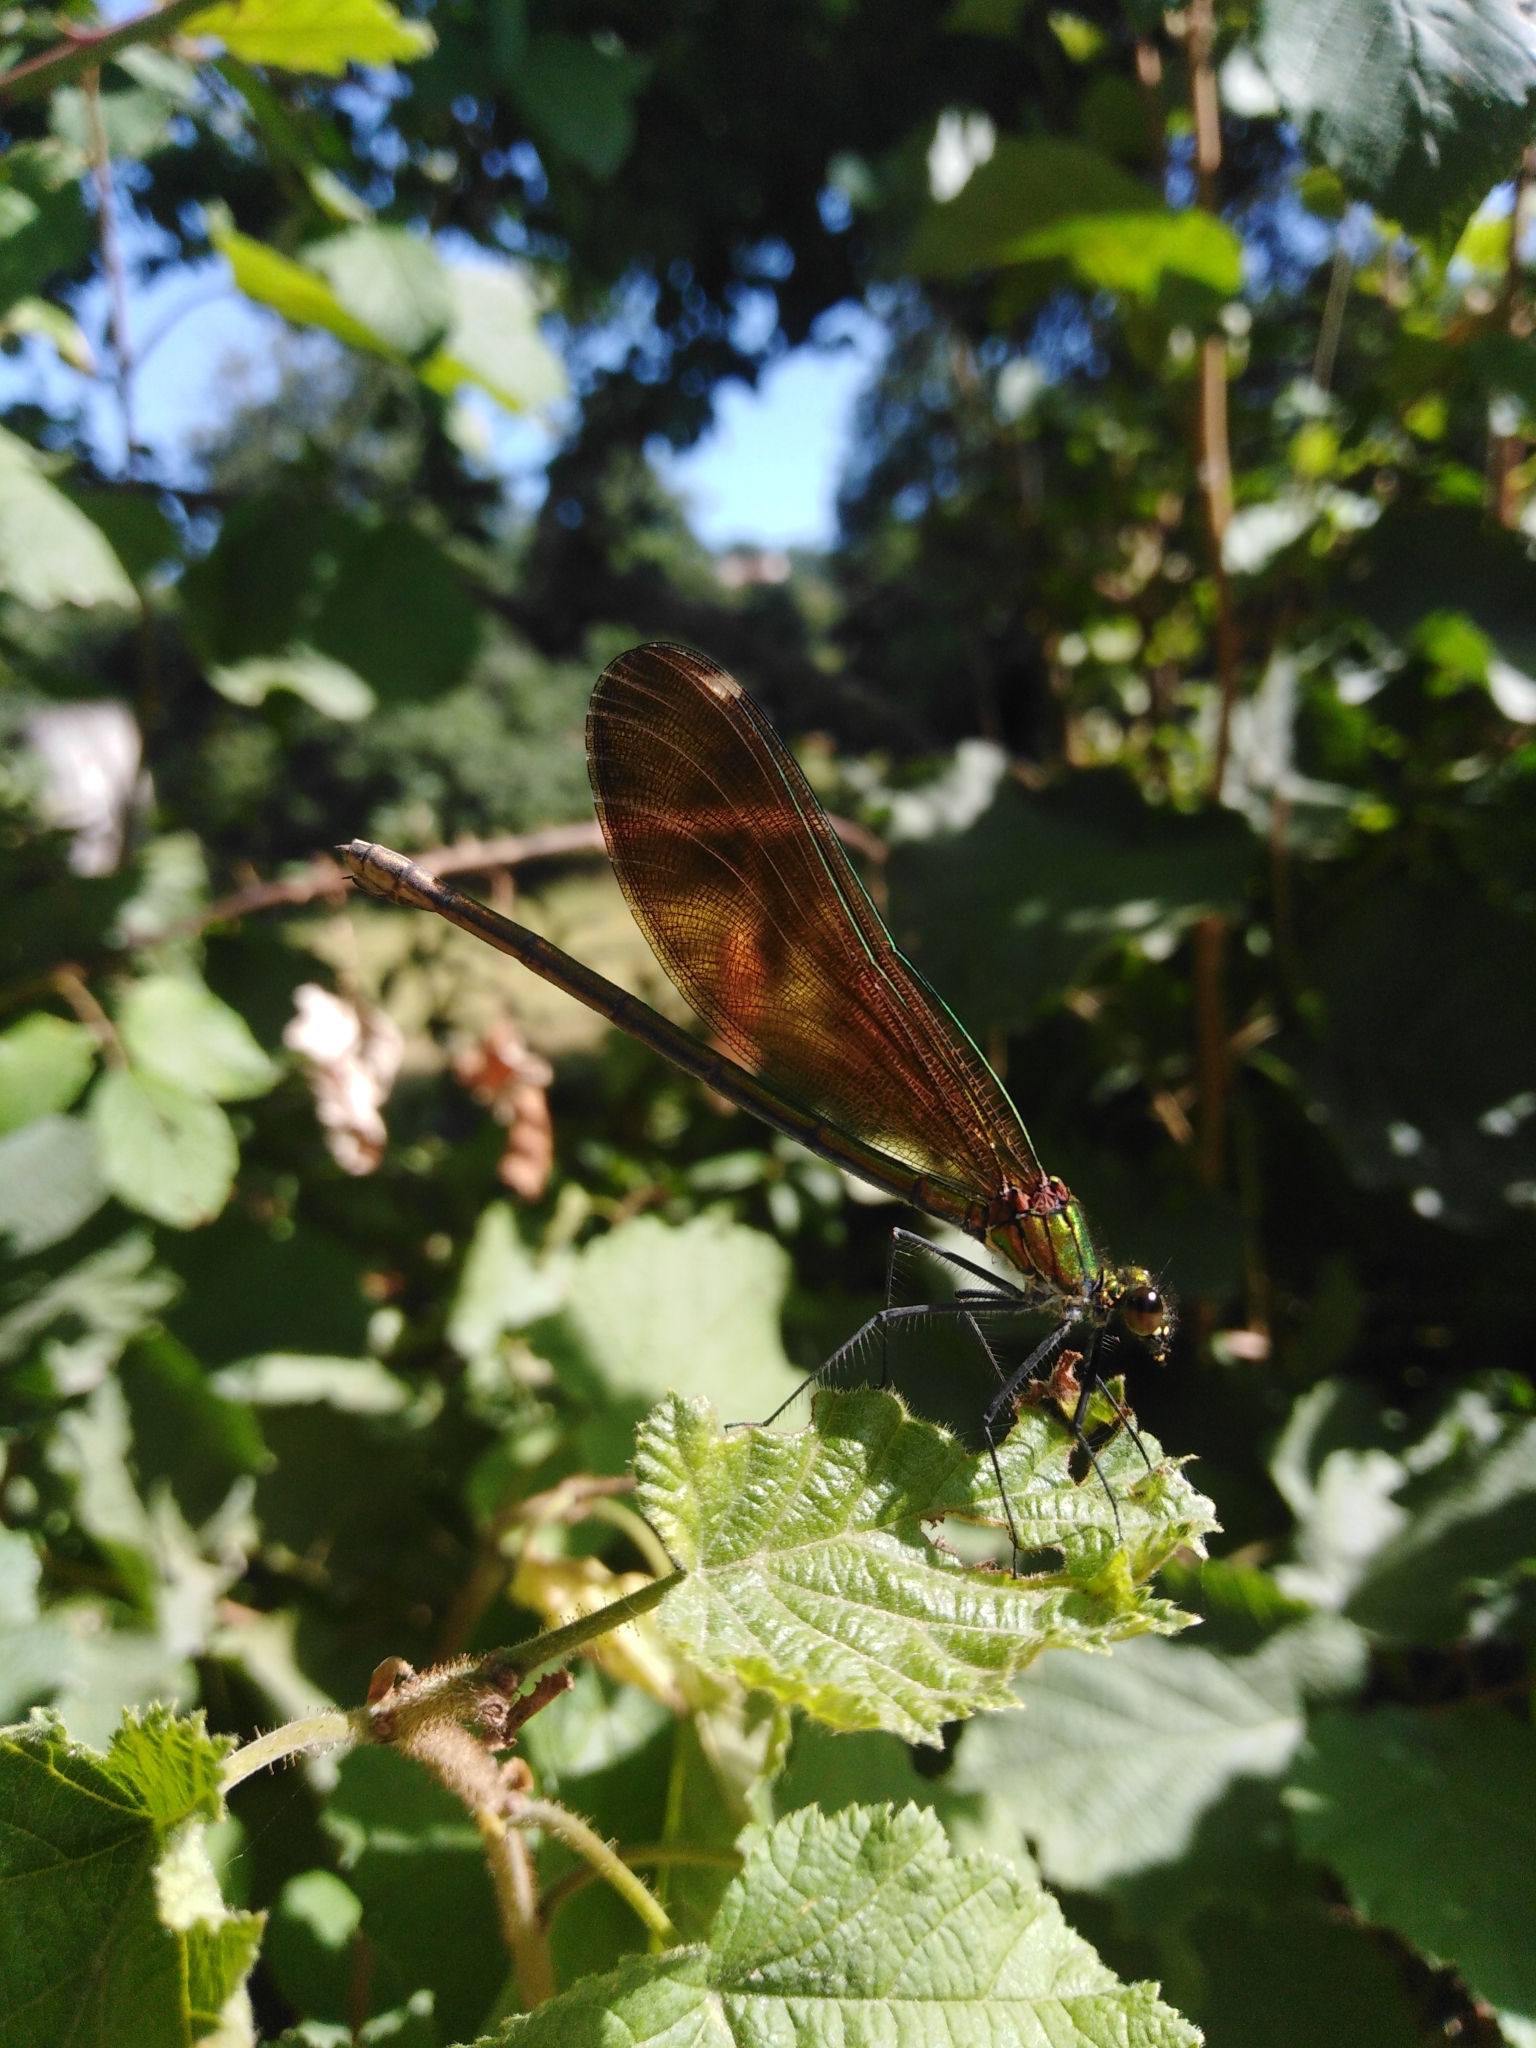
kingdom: Animalia
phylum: Arthropoda
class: Insecta
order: Odonata
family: Calopterygidae
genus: Calopteryx
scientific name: Calopteryx virgo
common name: Beautiful demoiselle
